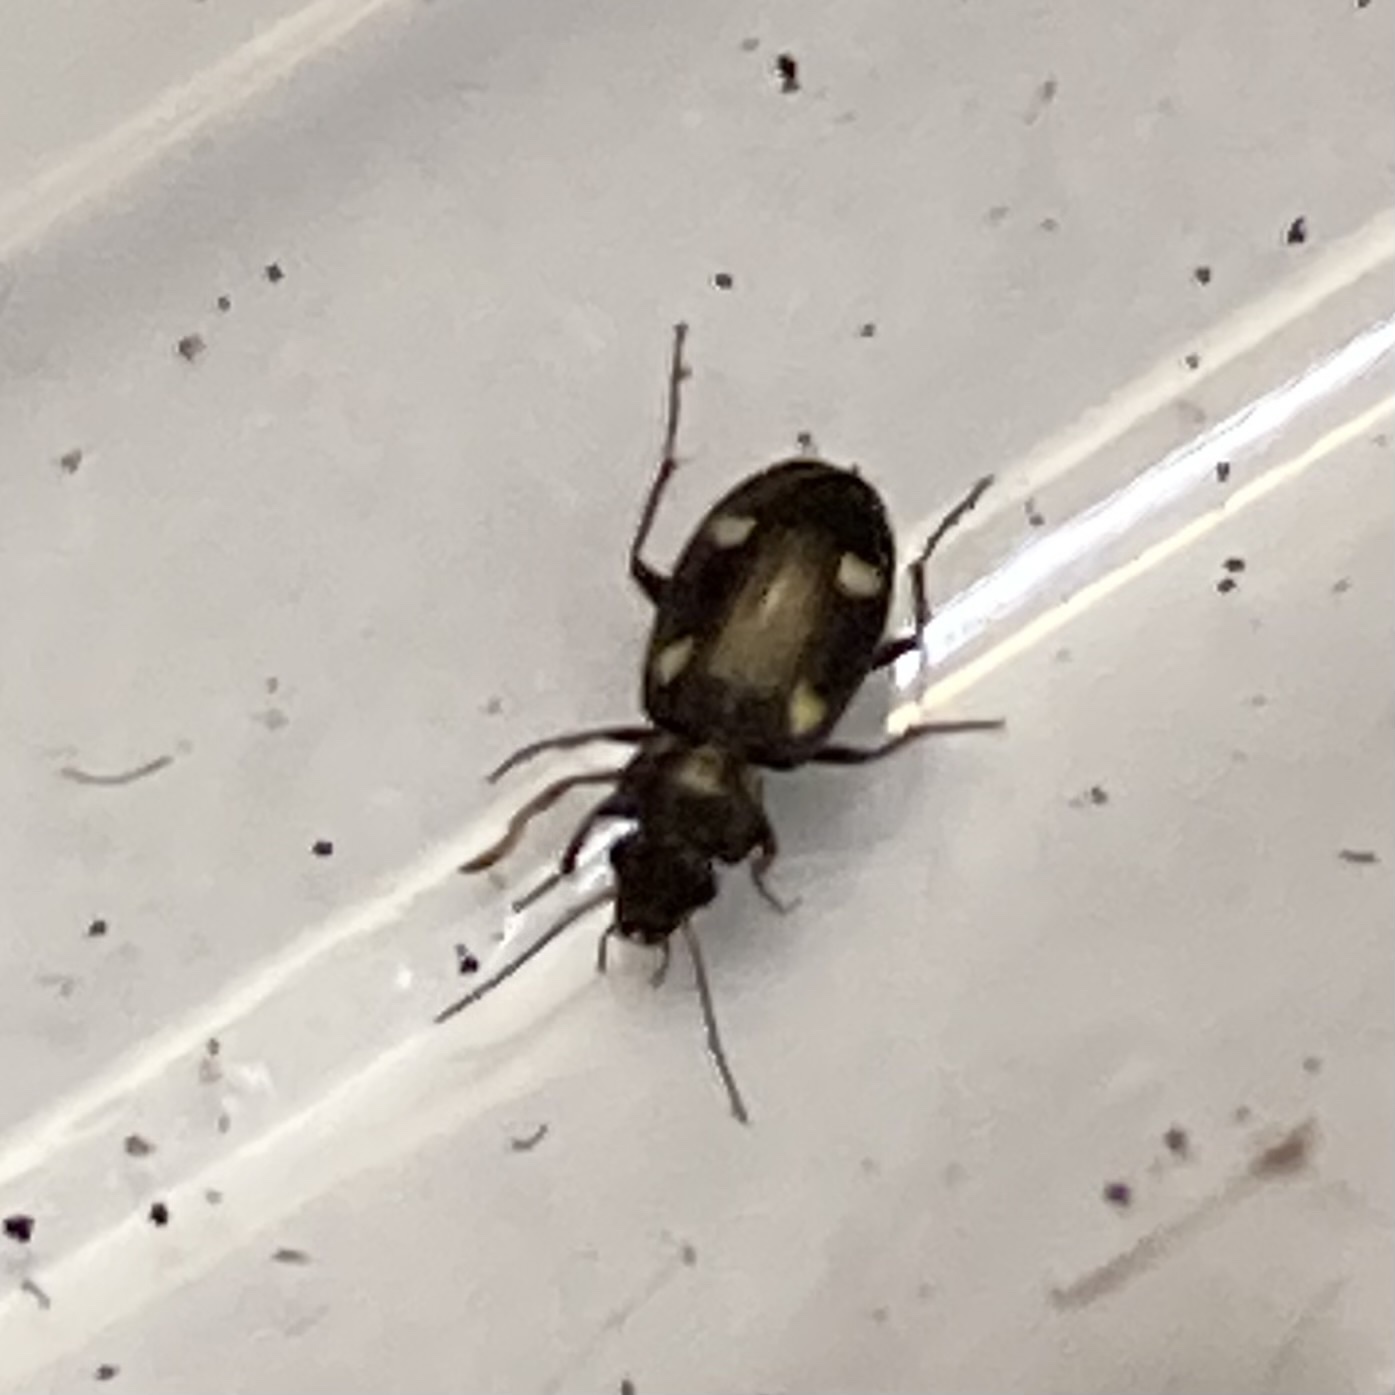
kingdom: Animalia
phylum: Arthropoda
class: Insecta
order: Coleoptera
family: Carabidae
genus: Tetragonoderus
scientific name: Tetragonoderus laevigatus
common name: Ground beetle
